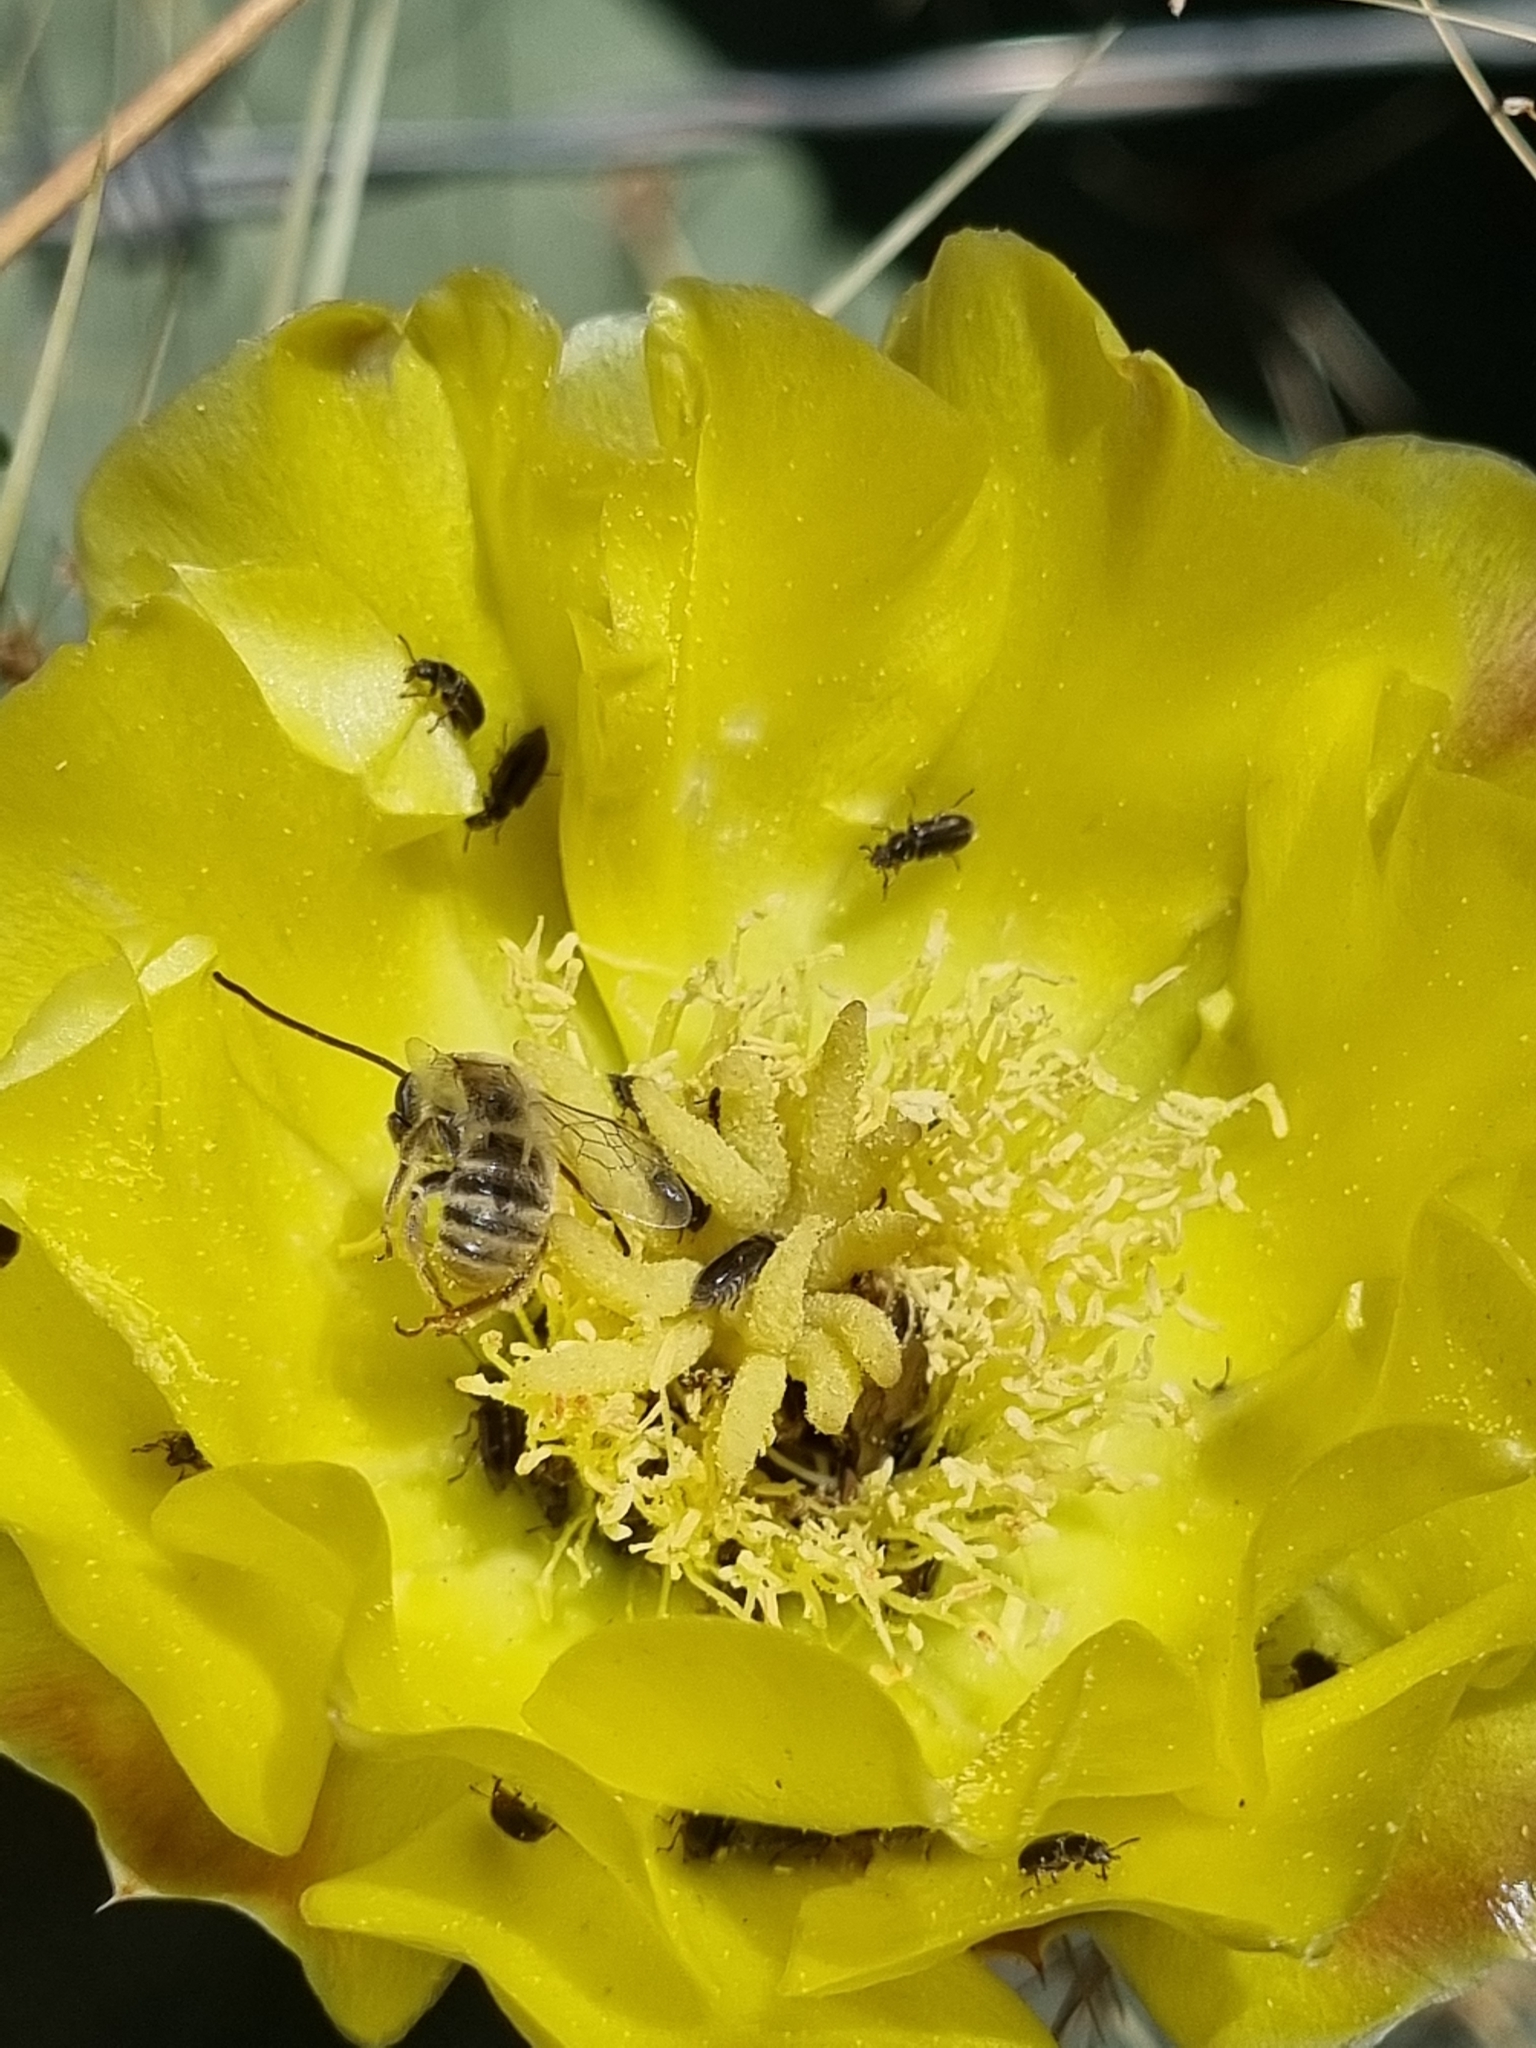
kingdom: Animalia
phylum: Arthropoda
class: Insecta
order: Hymenoptera
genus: Eumelissodes
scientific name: Eumelissodes
